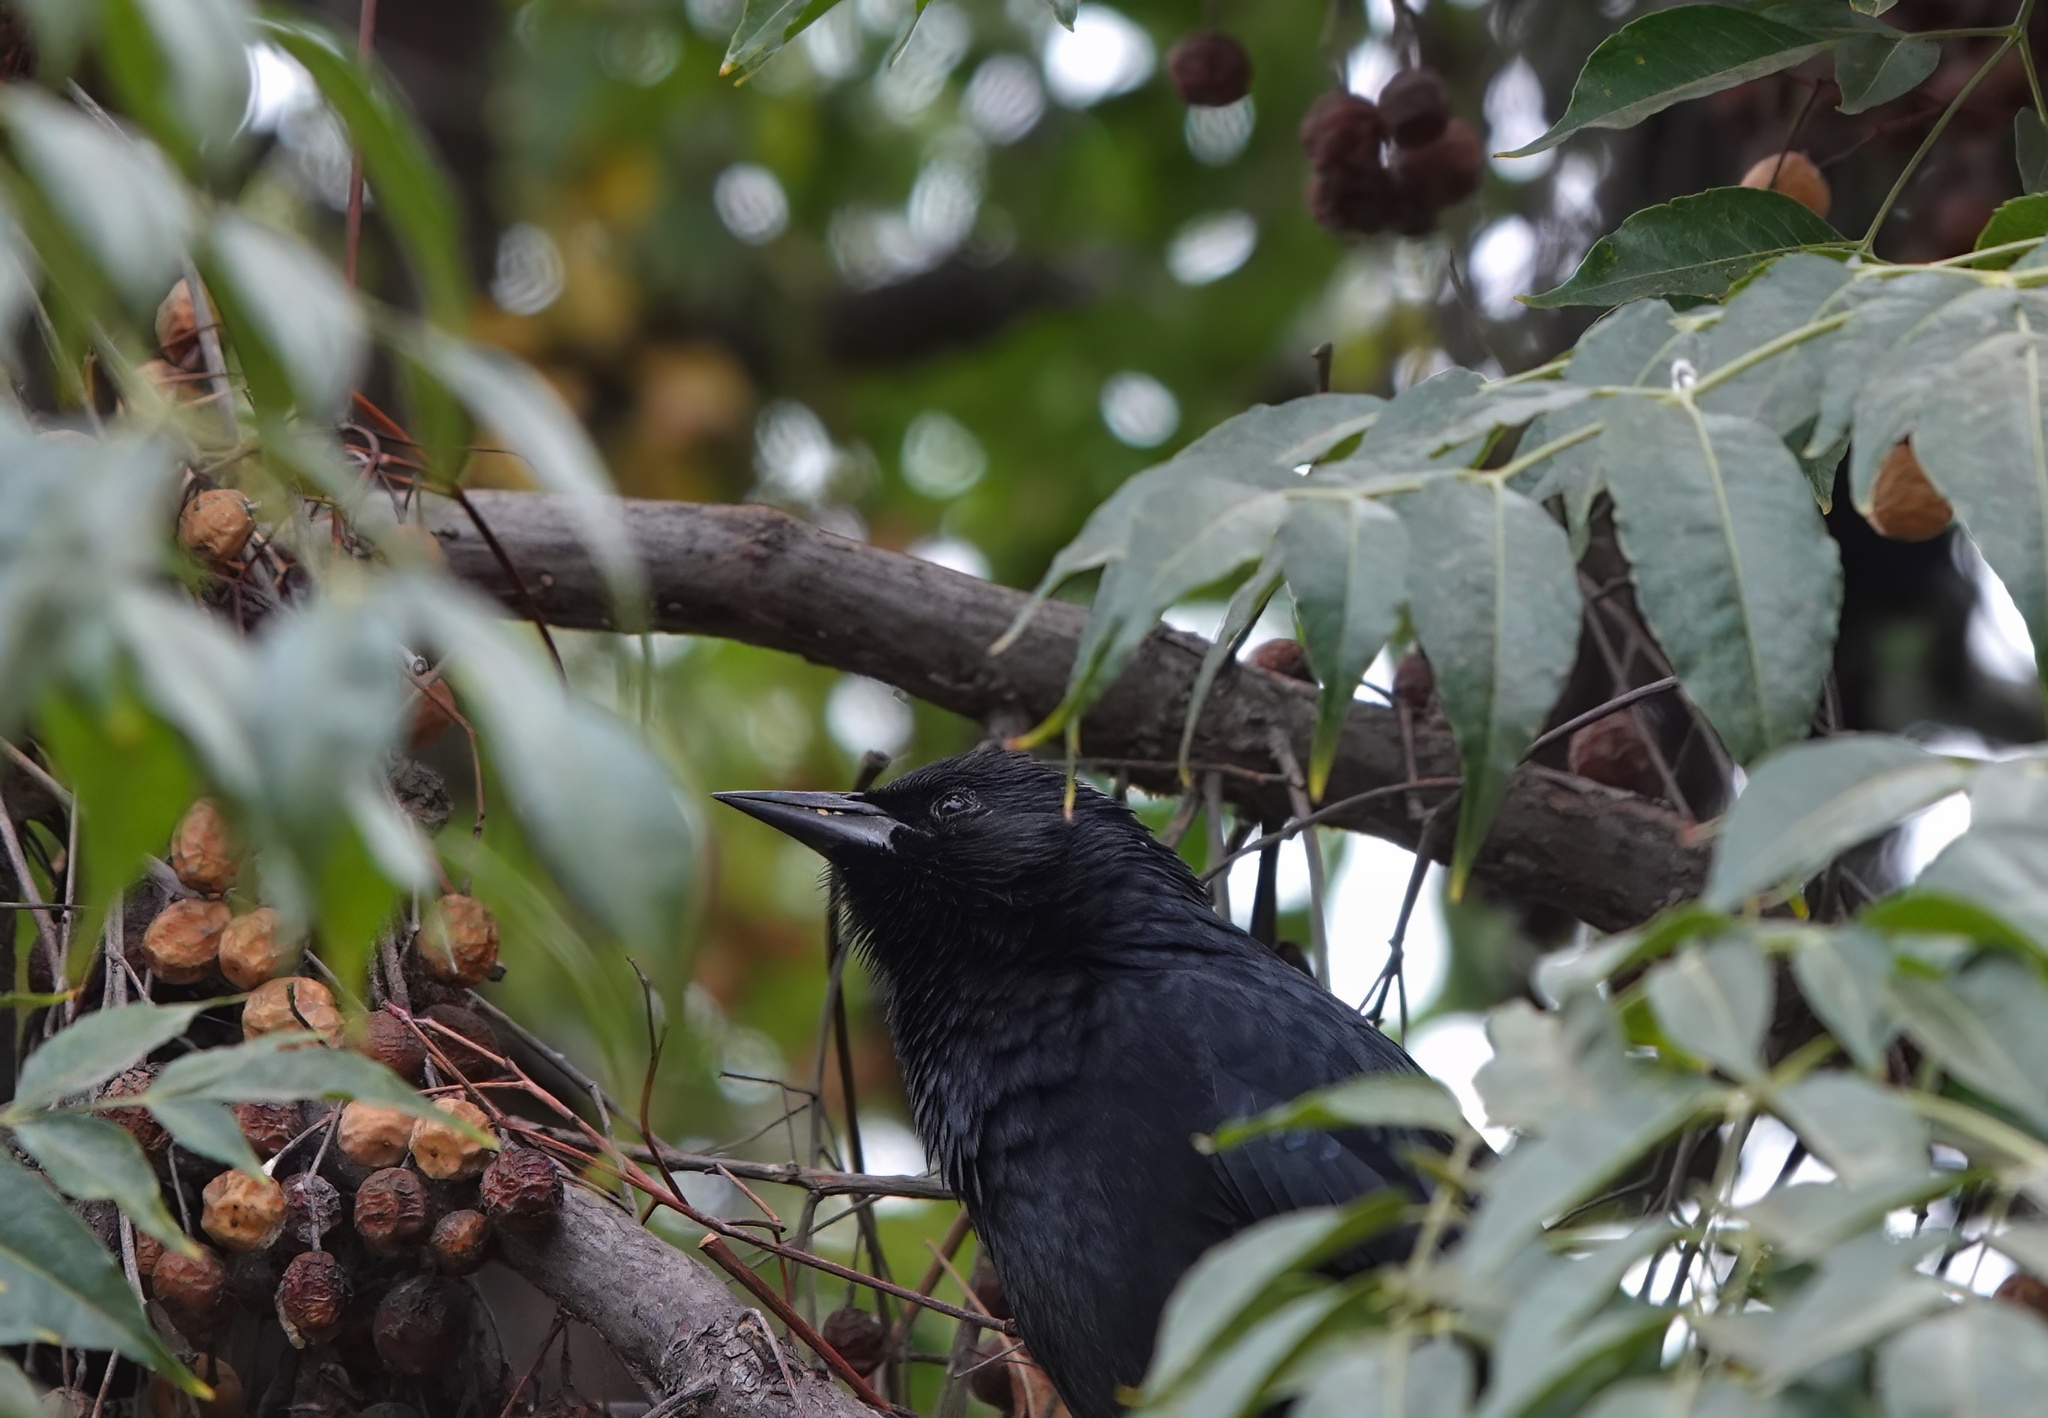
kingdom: Animalia
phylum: Chordata
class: Aves
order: Passeriformes
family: Icteridae
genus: Curaeus
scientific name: Curaeus curaeus
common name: Austral blackbird
